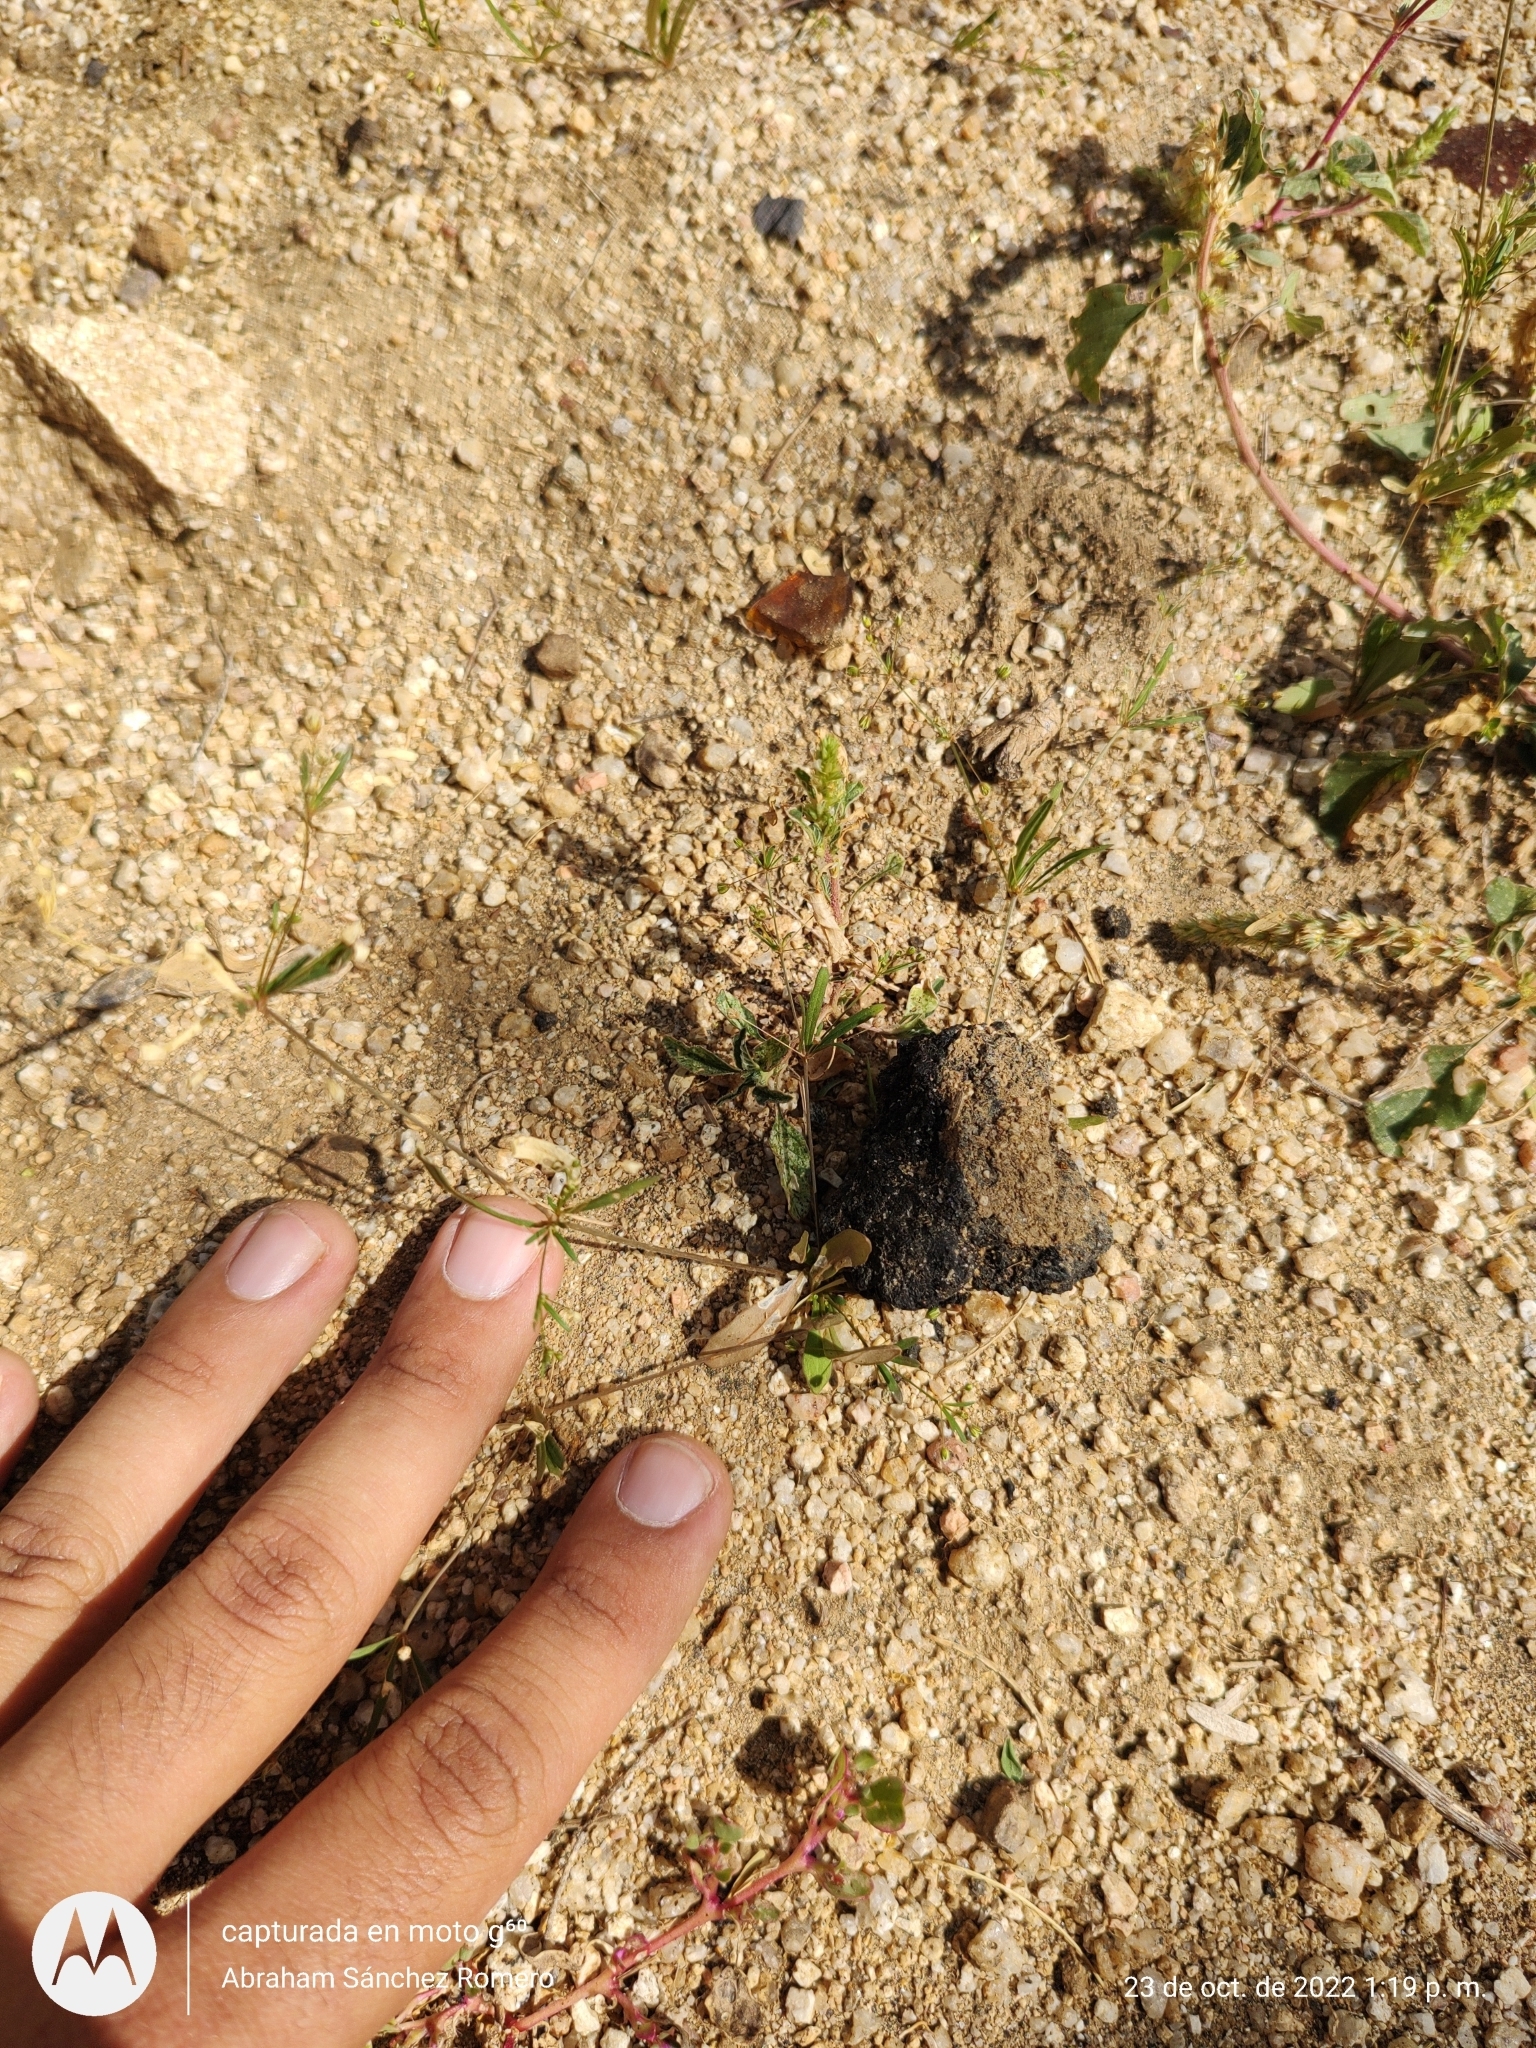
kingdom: Plantae
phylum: Tracheophyta
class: Magnoliopsida
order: Caryophyllales
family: Molluginaceae
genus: Mollugo
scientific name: Mollugo verticillata
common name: Green carpetweed
